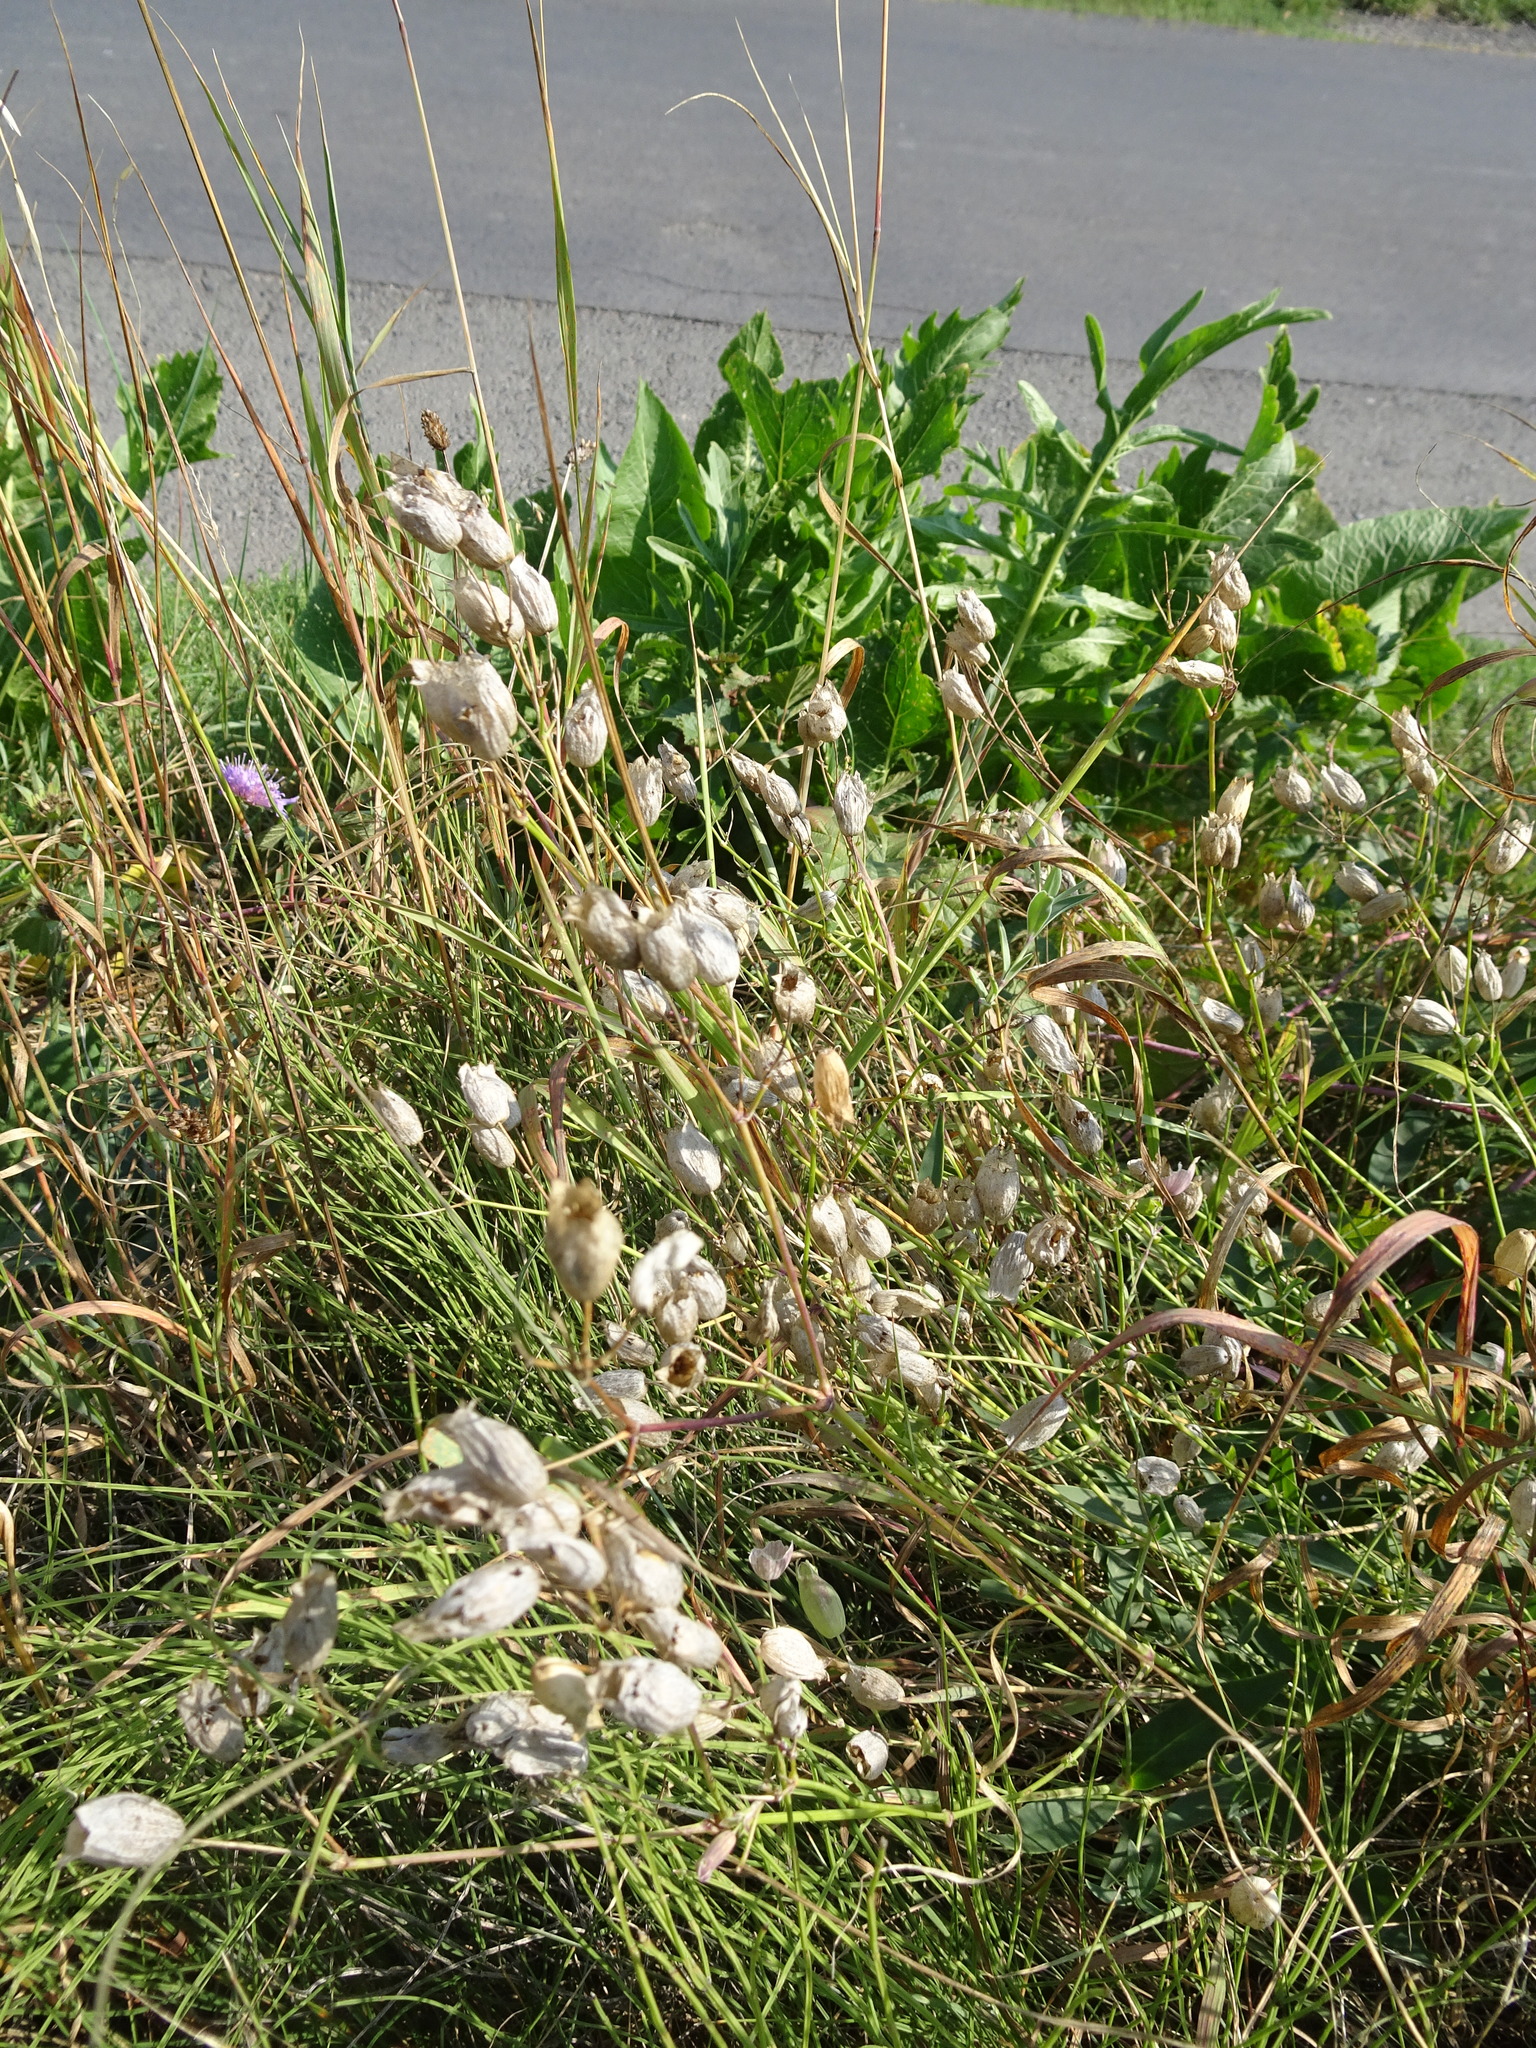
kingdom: Plantae
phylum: Tracheophyta
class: Magnoliopsida
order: Caryophyllales
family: Caryophyllaceae
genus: Silene
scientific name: Silene vulgaris
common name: Bladder campion
